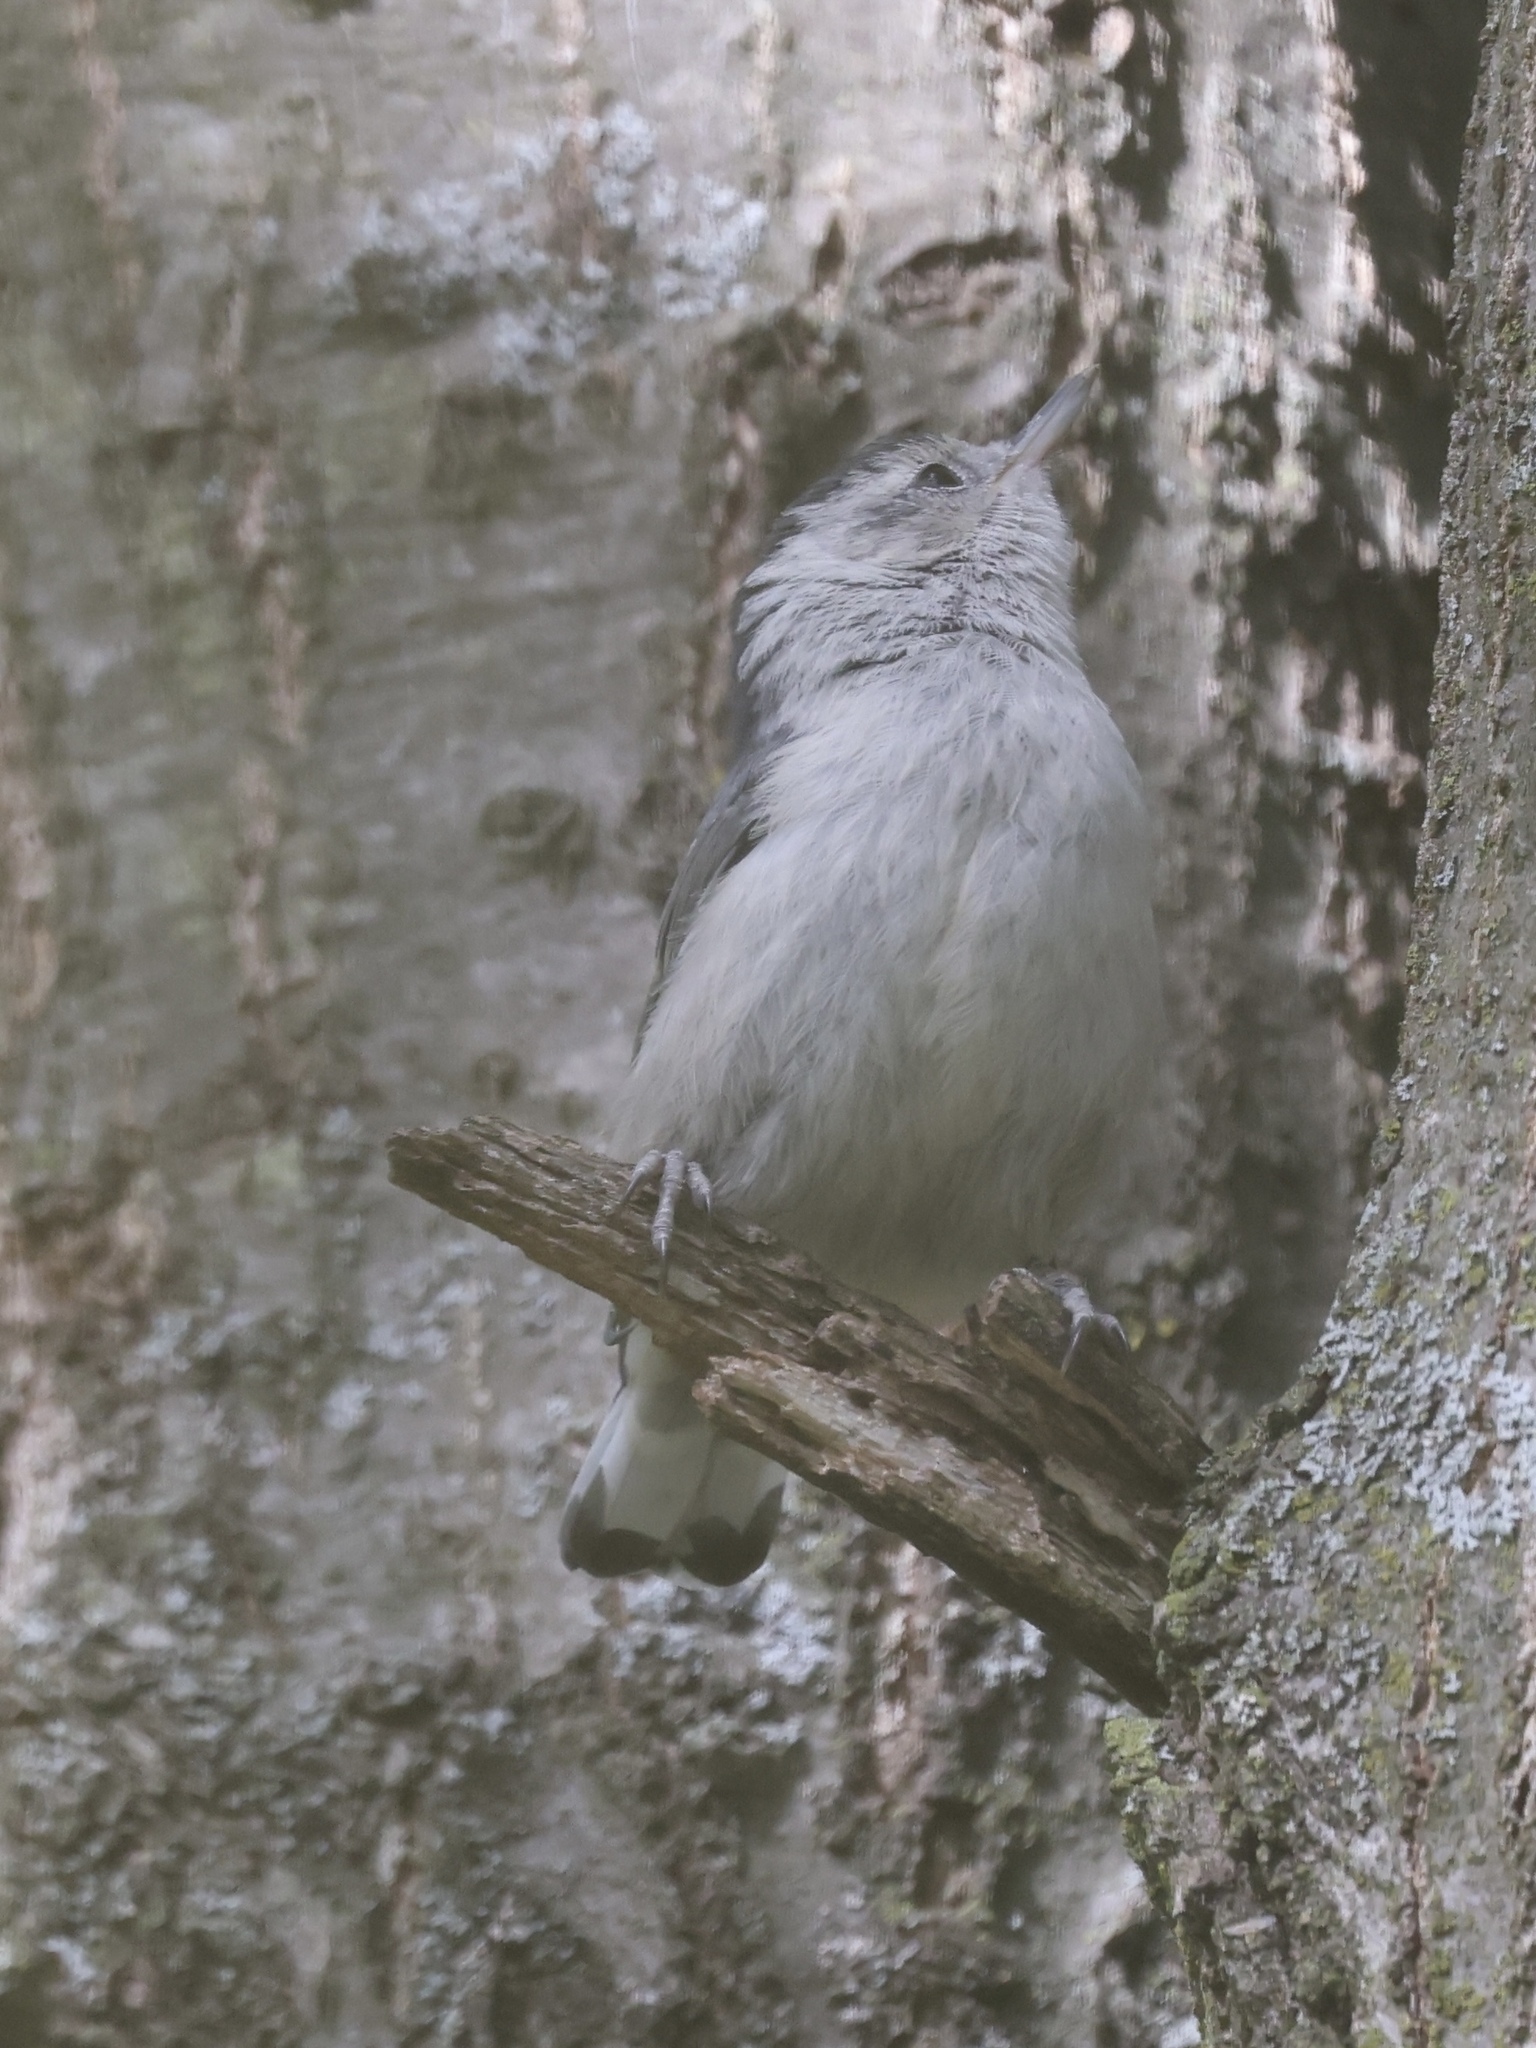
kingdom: Animalia
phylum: Chordata
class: Aves
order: Passeriformes
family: Sittidae
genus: Sitta
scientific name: Sitta carolinensis
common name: White-breasted nuthatch
